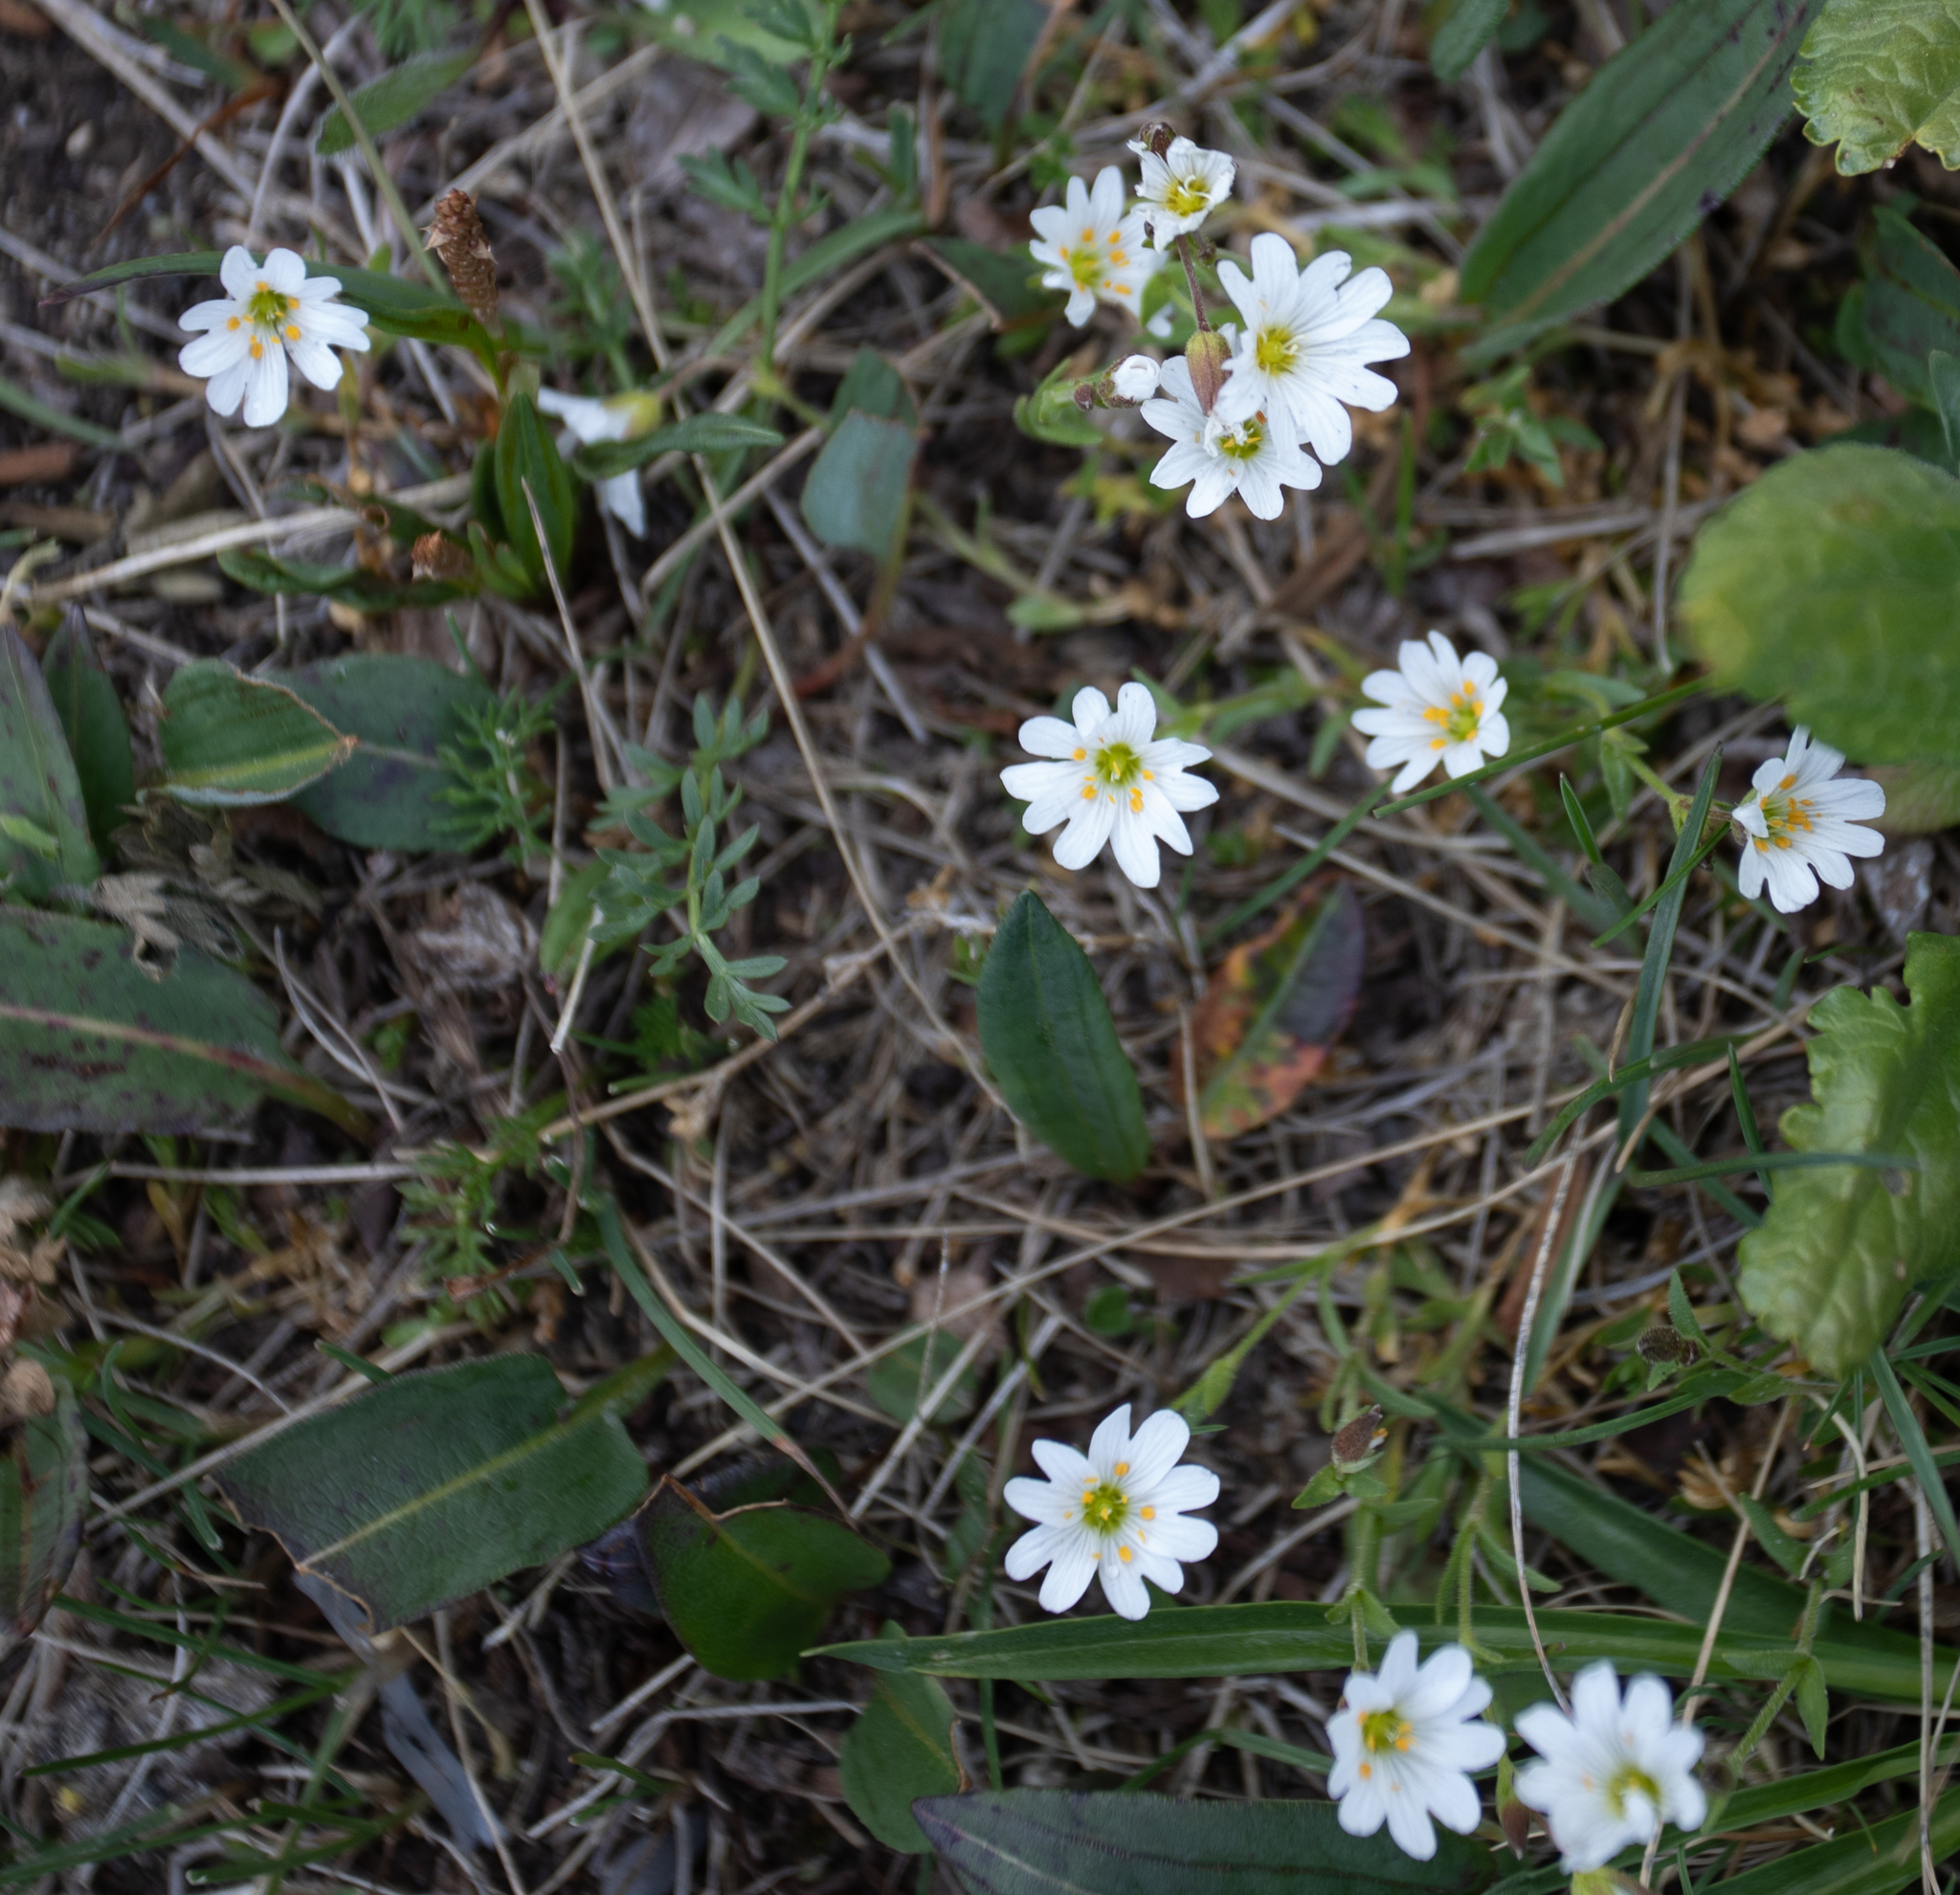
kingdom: Plantae
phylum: Tracheophyta
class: Magnoliopsida
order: Caryophyllales
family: Caryophyllaceae
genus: Dichodon
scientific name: Dichodon cerastoides
